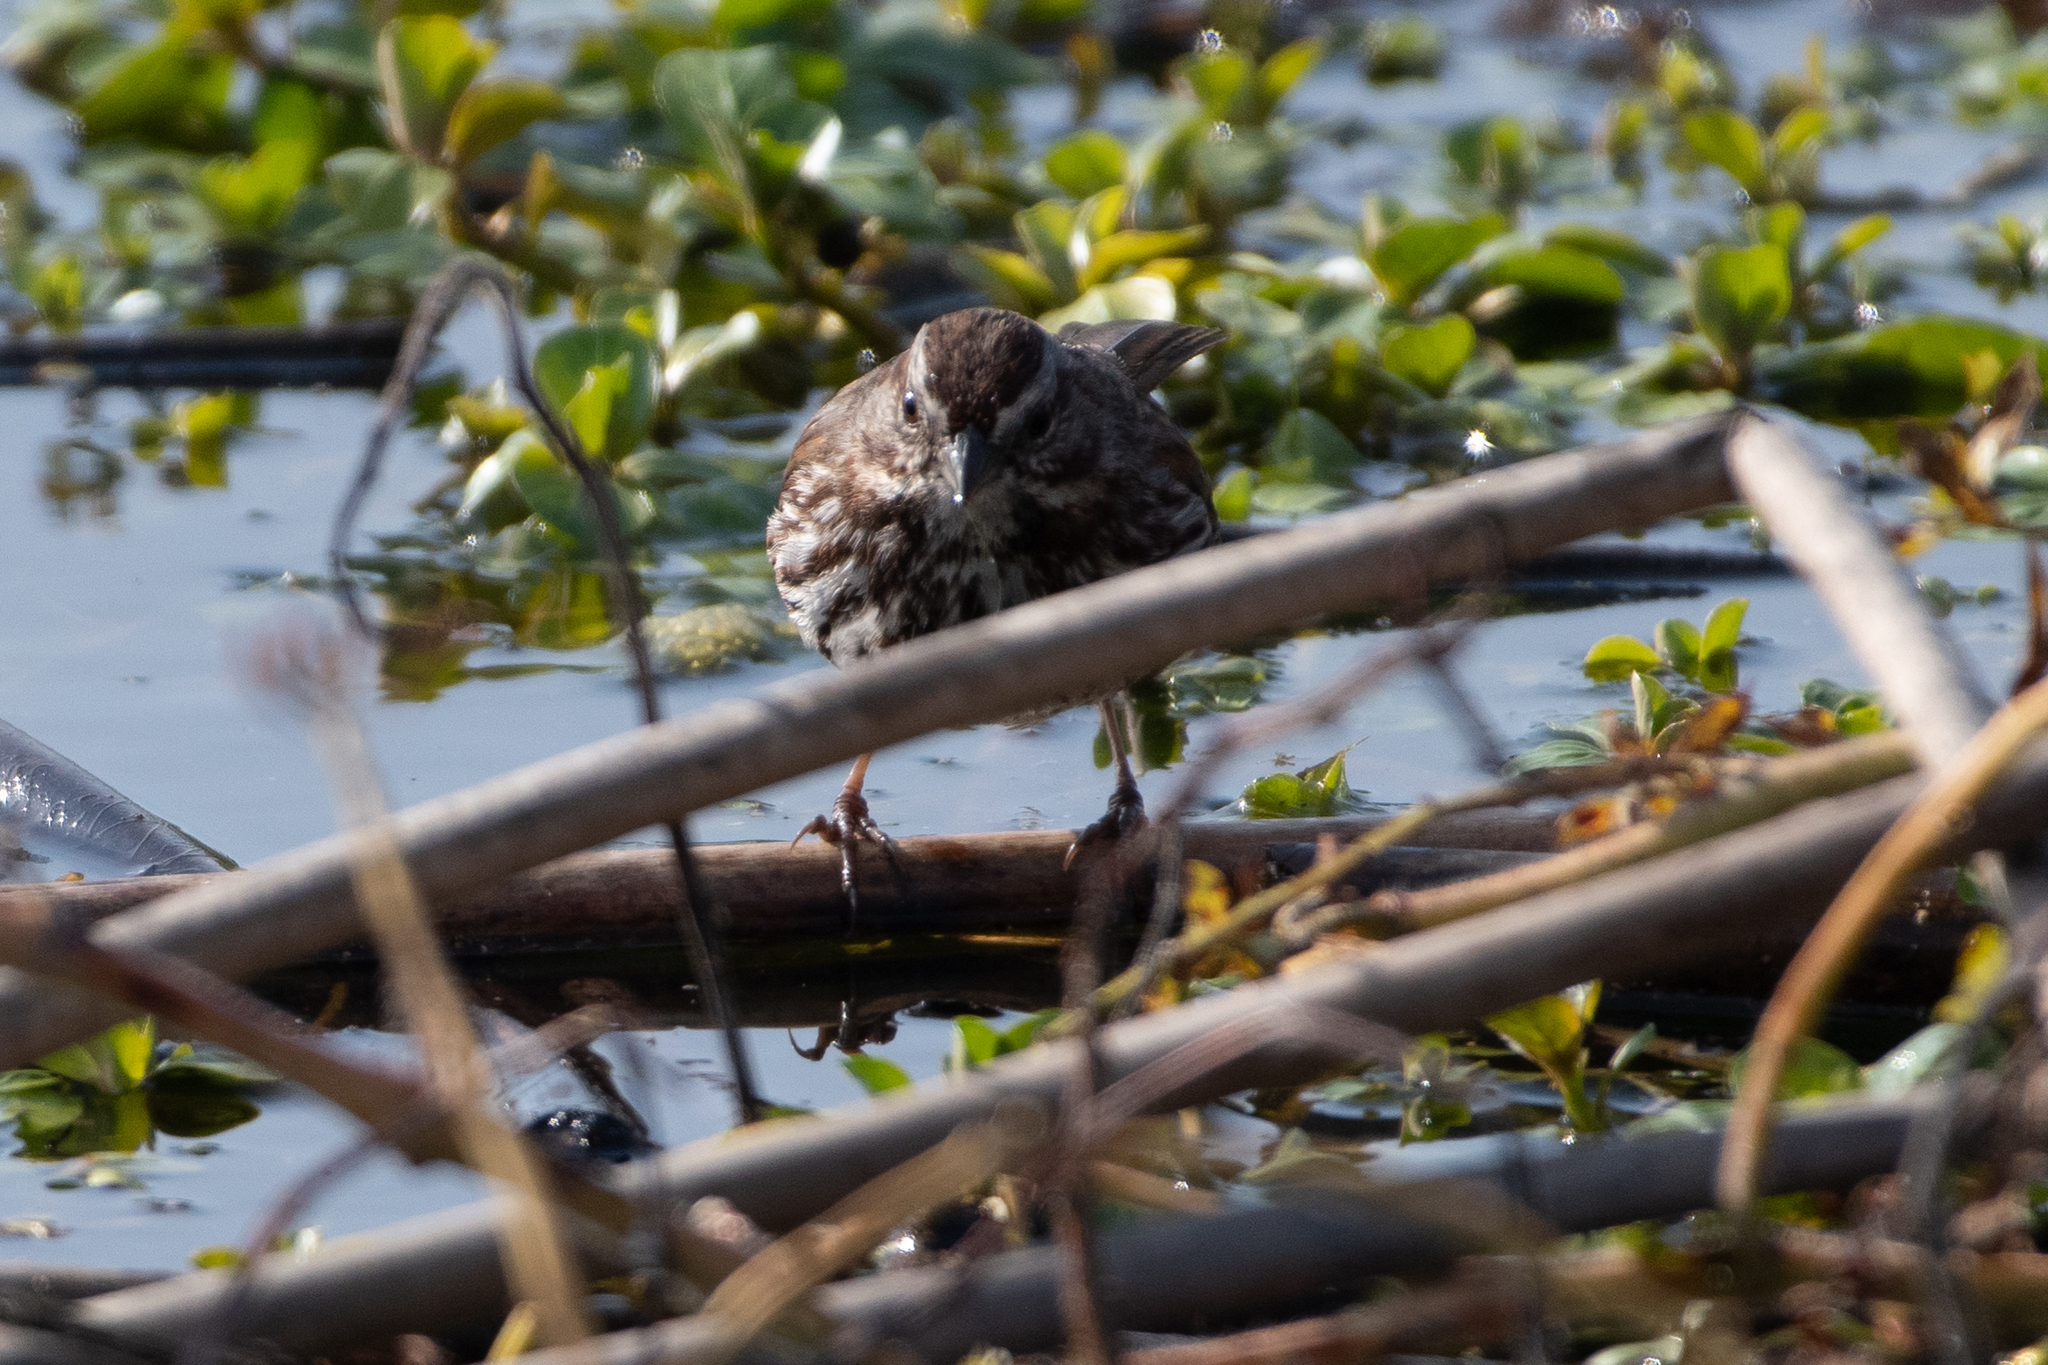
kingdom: Animalia
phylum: Chordata
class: Aves
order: Passeriformes
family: Passerellidae
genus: Melospiza
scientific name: Melospiza melodia
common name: Song sparrow
